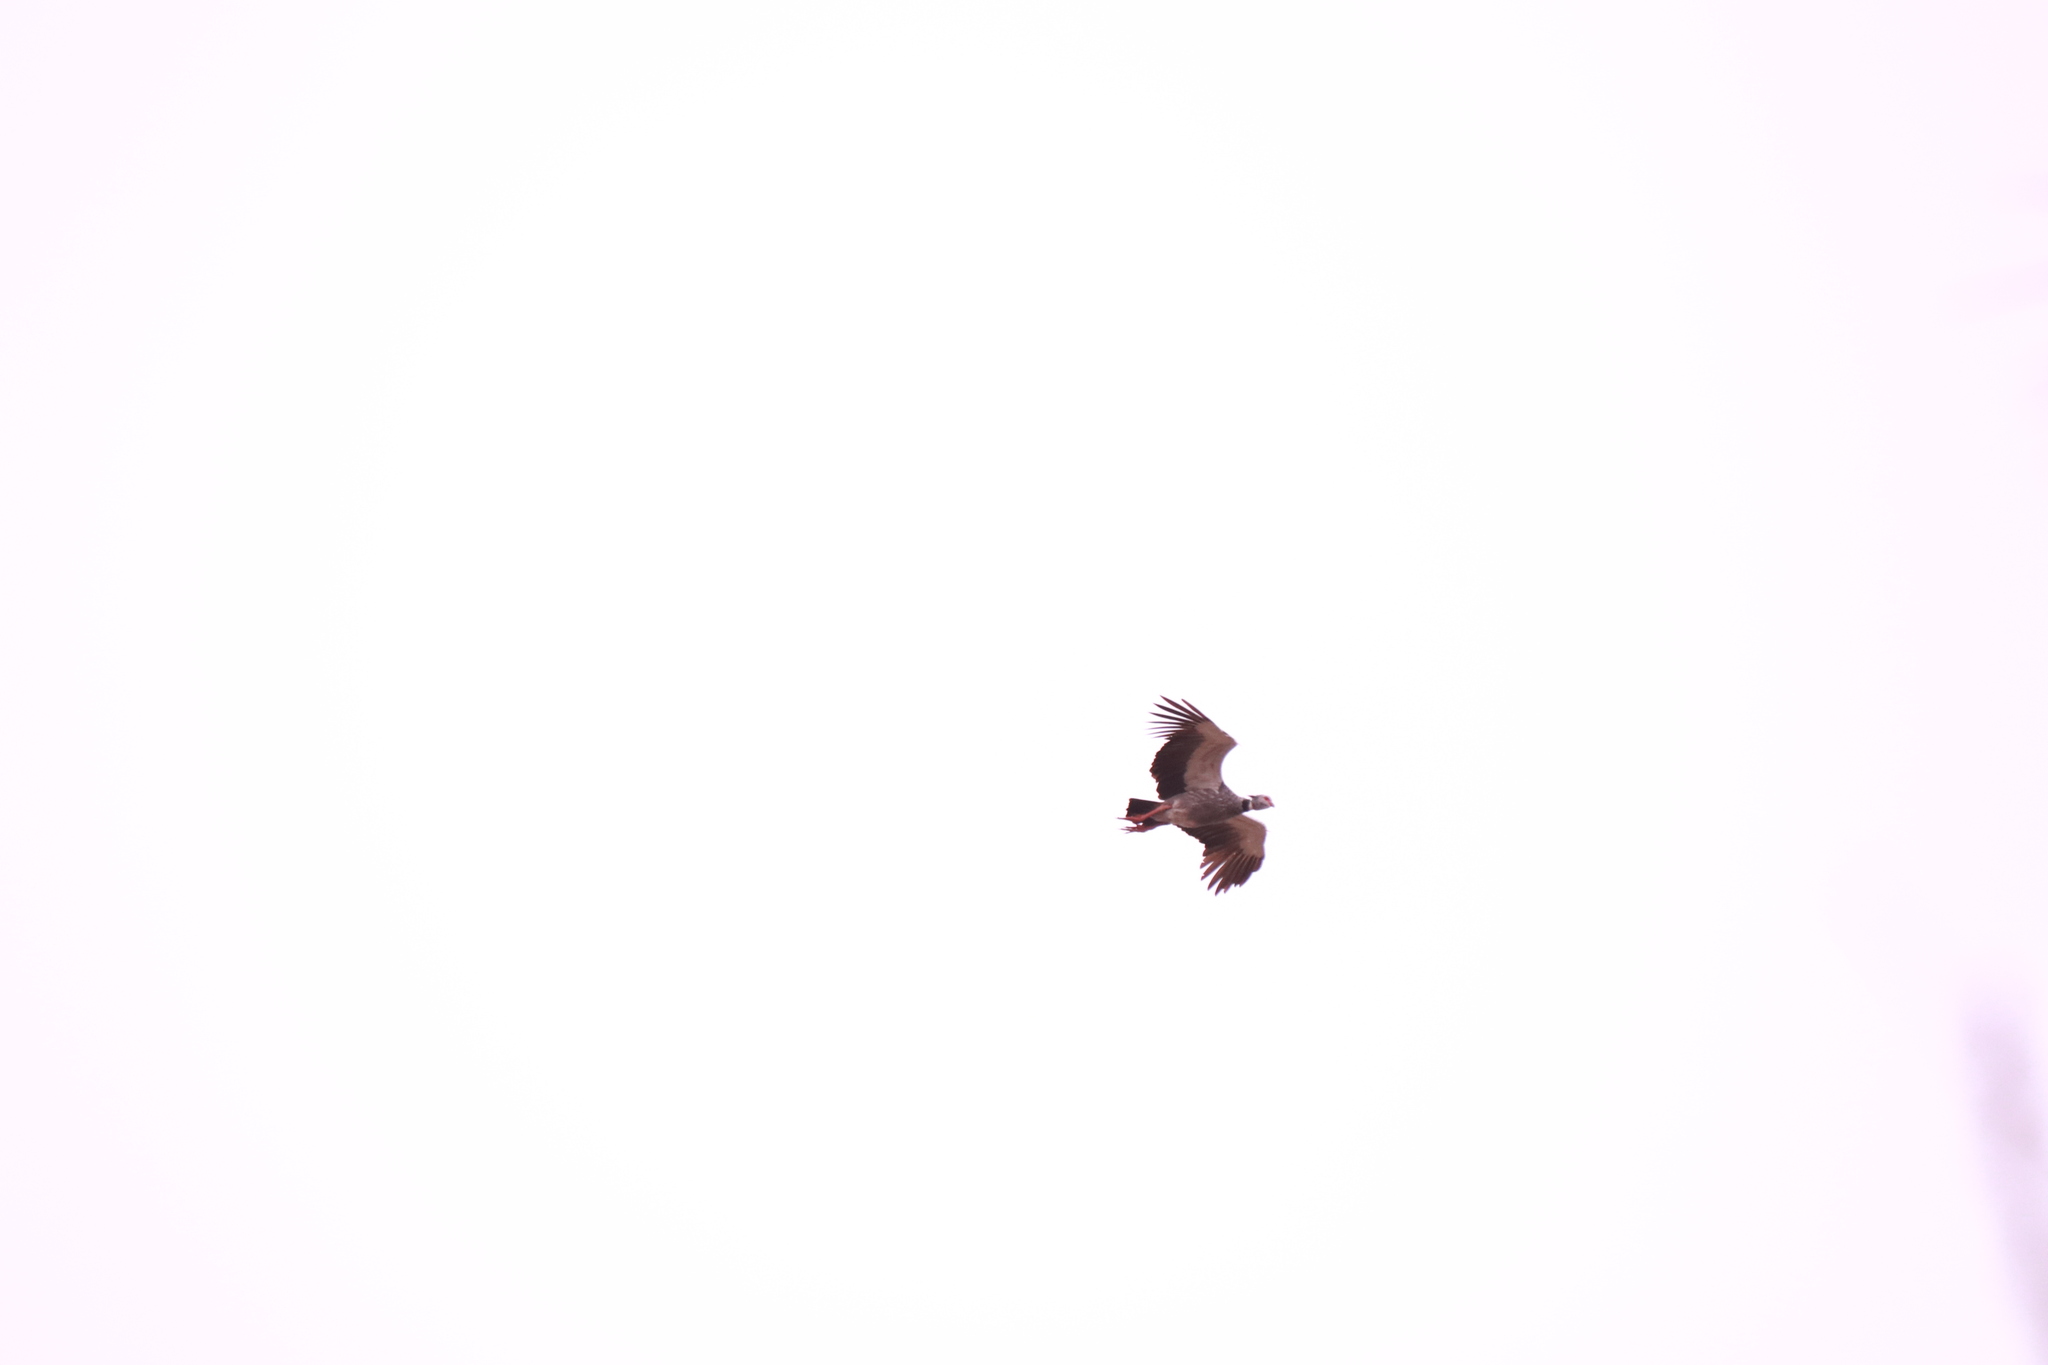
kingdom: Animalia
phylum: Chordata
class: Aves
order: Anseriformes
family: Anhimidae
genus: Chauna
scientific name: Chauna torquata
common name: Southern screamer
